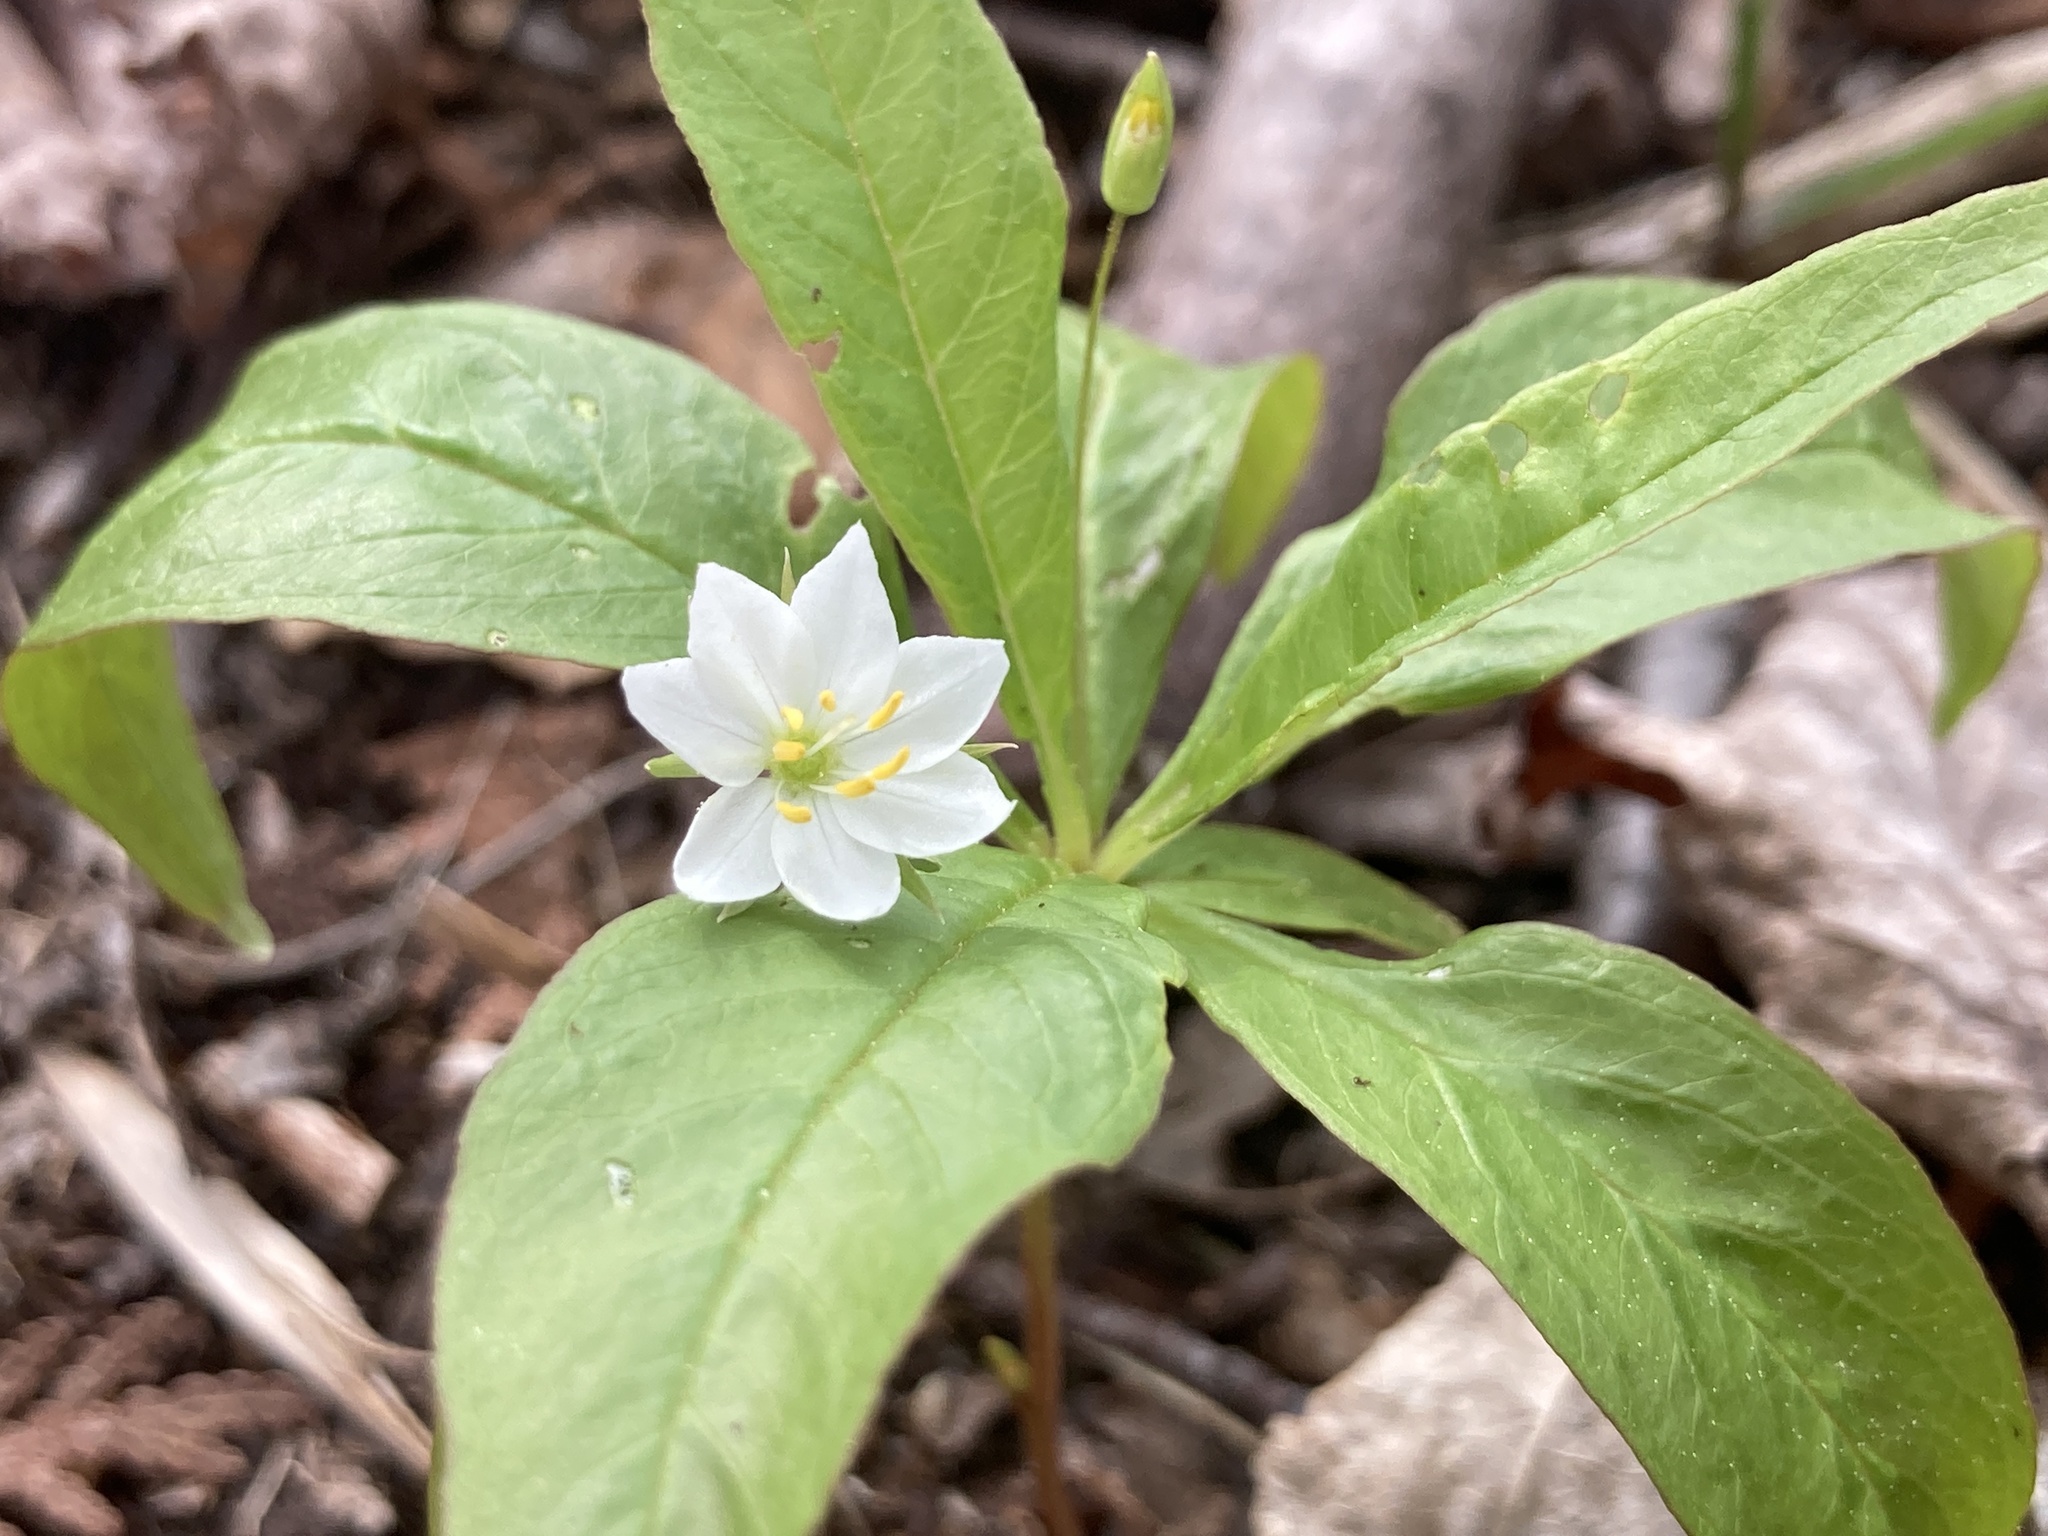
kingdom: Plantae
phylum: Tracheophyta
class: Magnoliopsida
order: Ericales
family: Primulaceae
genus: Lysimachia
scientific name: Lysimachia borealis
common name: American starflower
